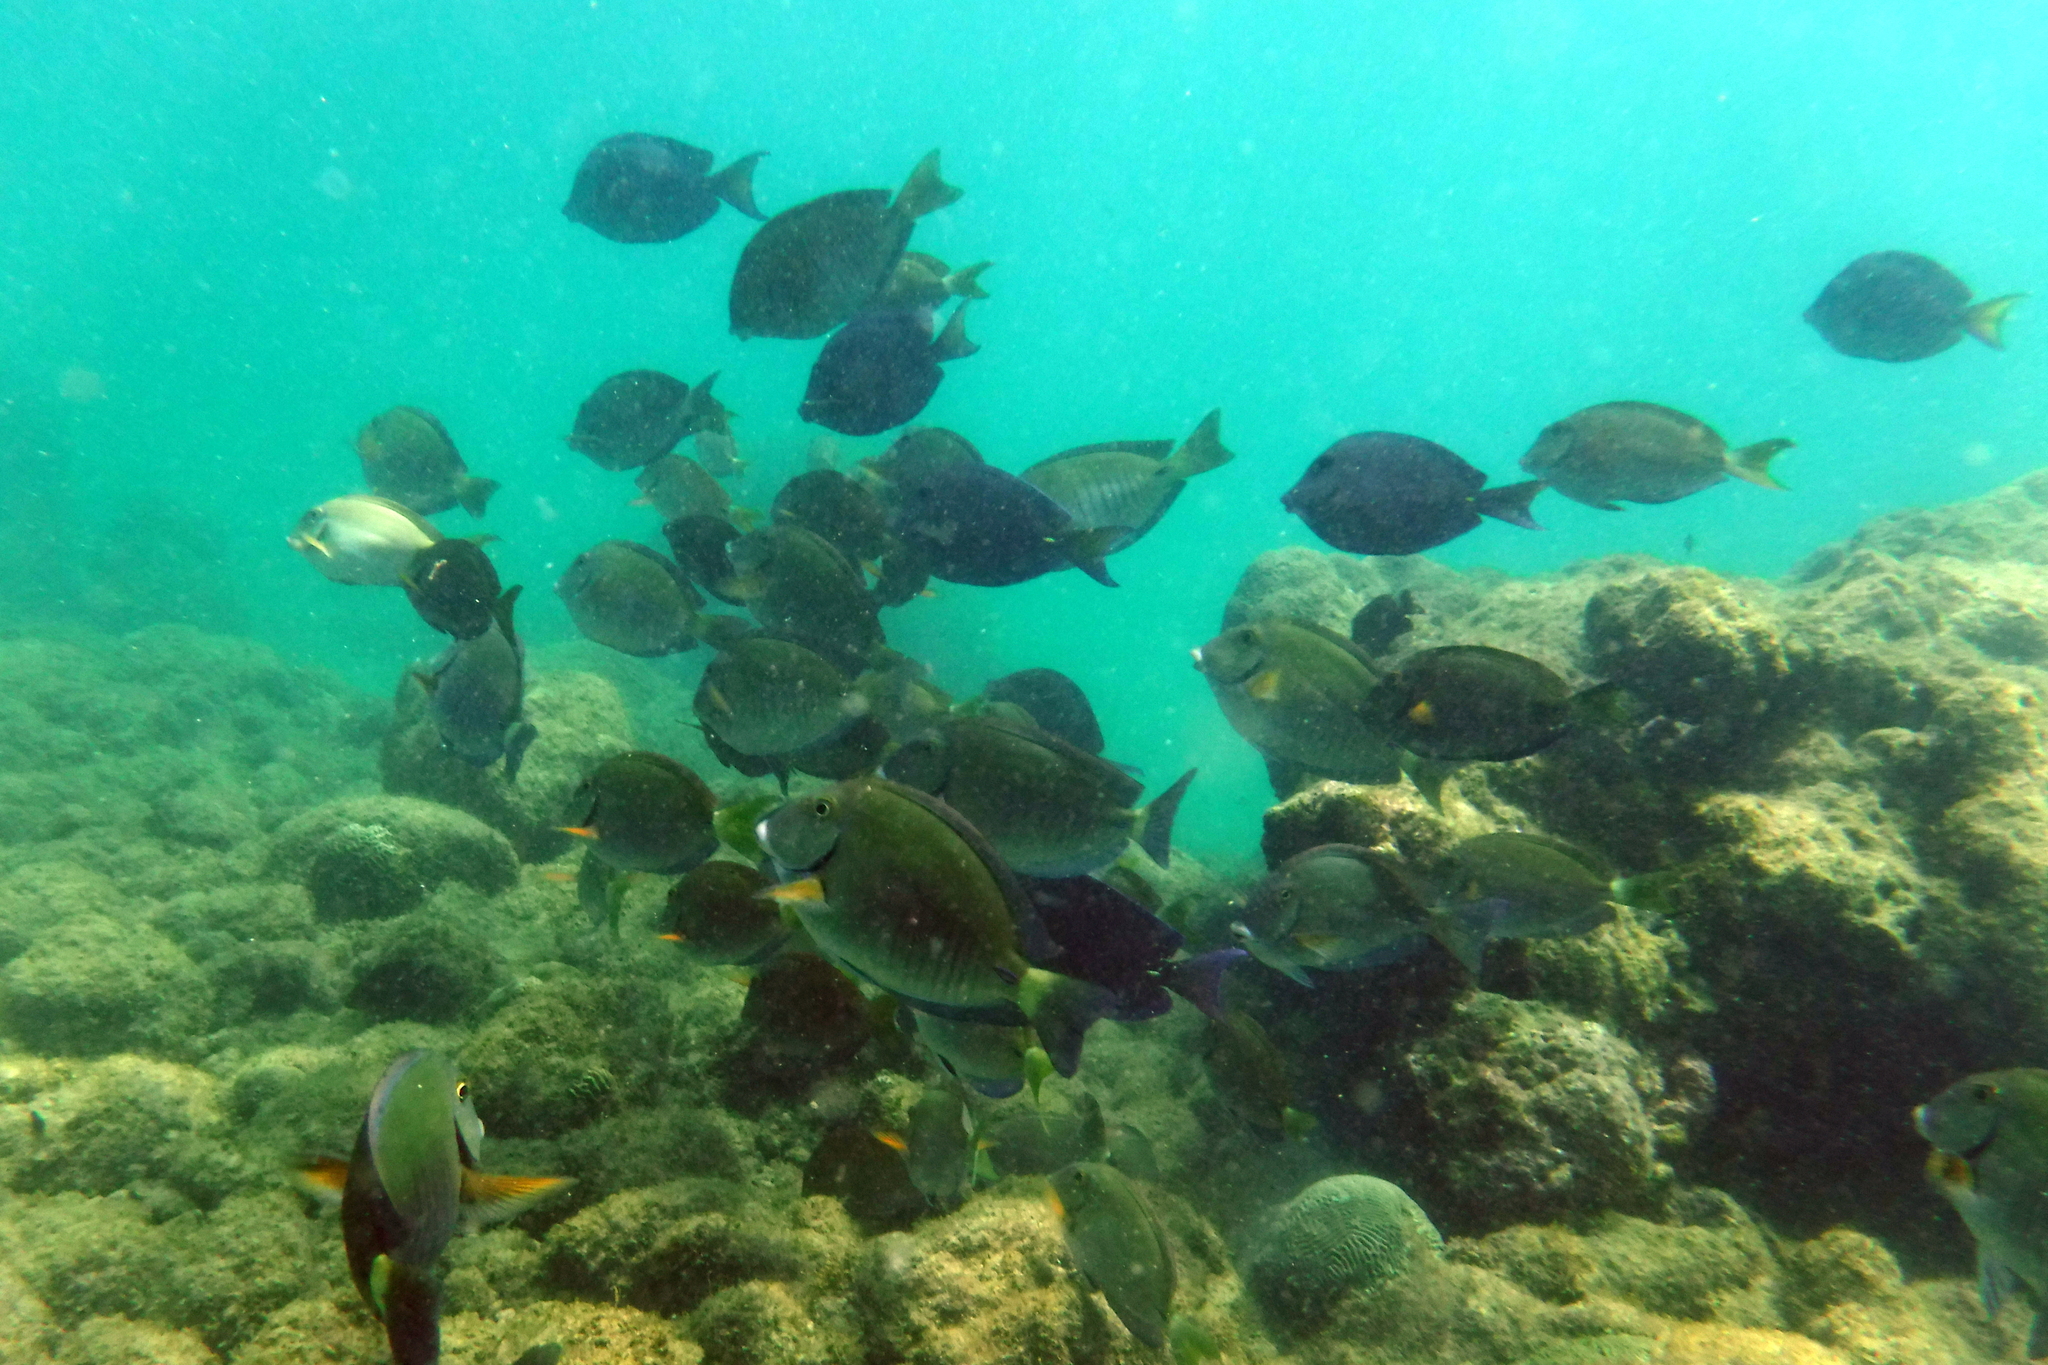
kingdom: Animalia
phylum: Chordata
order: Perciformes
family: Acanthuridae
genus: Acanthurus
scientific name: Acanthurus chirurgus
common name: Doctorfish
